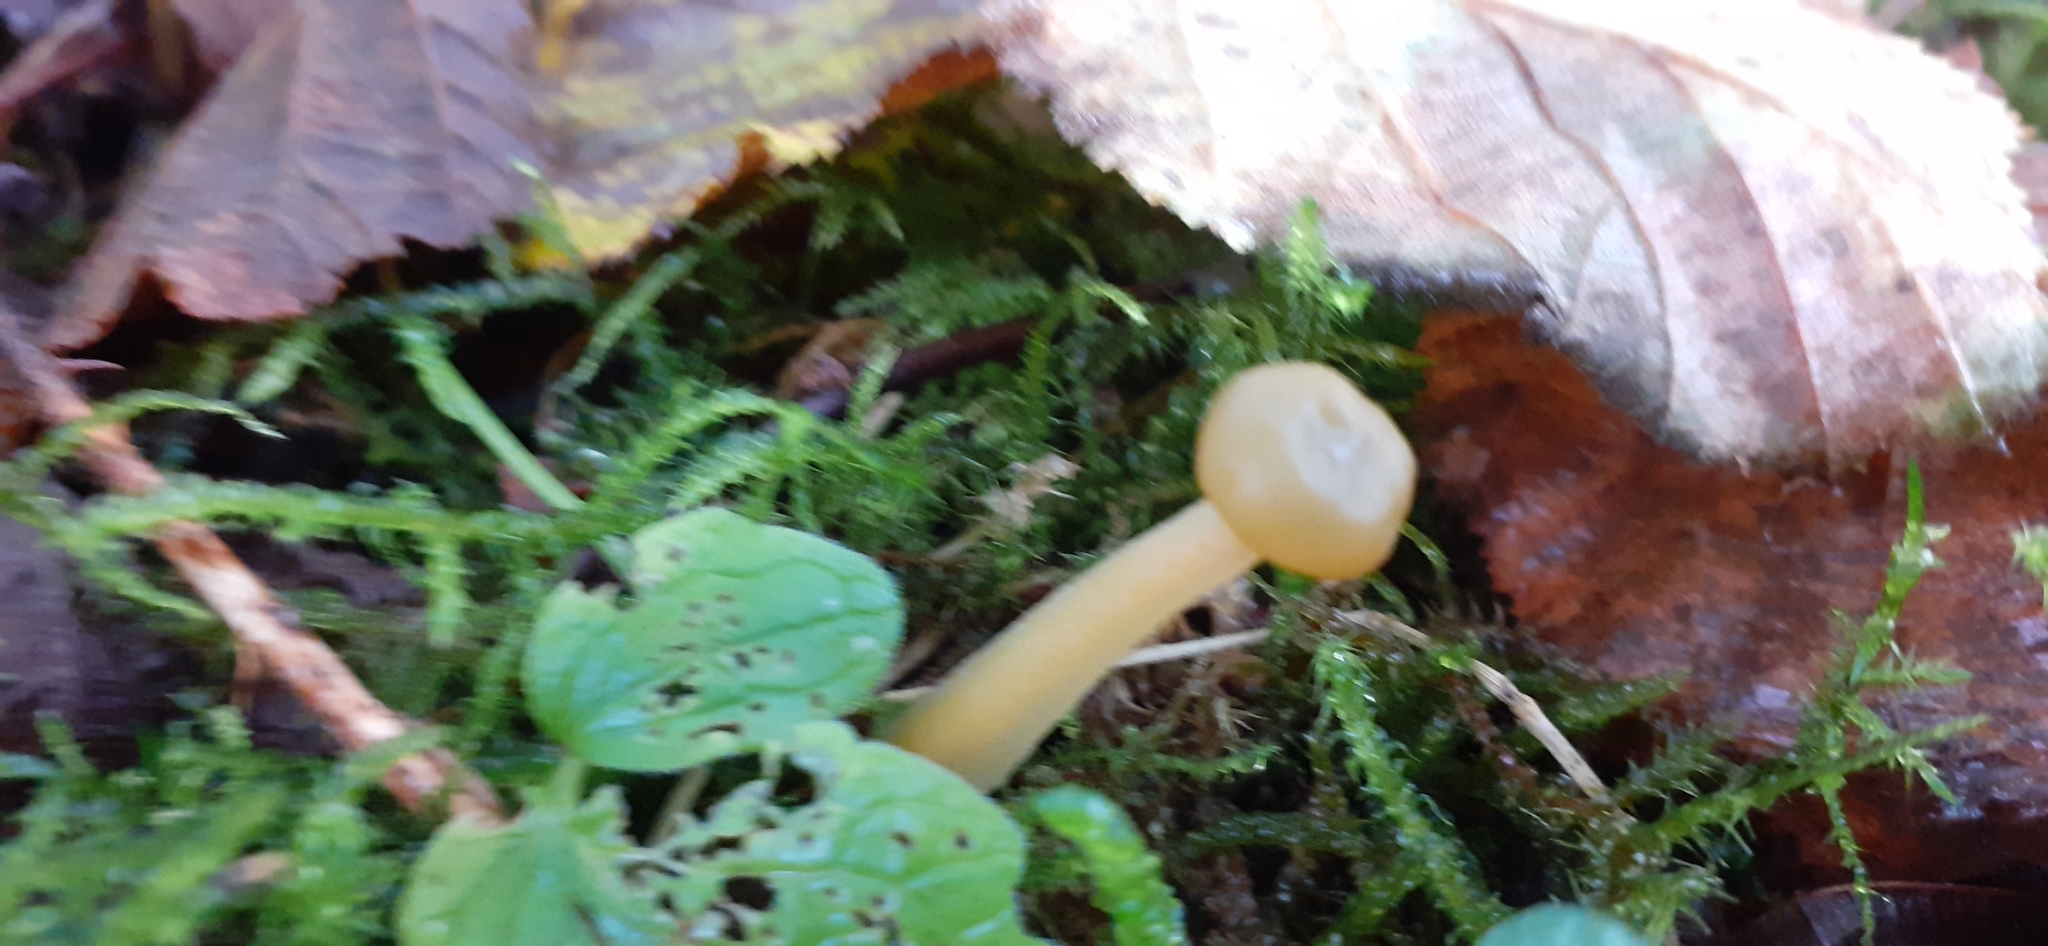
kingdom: Fungi
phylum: Ascomycota
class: Leotiomycetes
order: Leotiales
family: Leotiaceae
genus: Leotia
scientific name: Leotia lubrica
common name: Jellybaby
